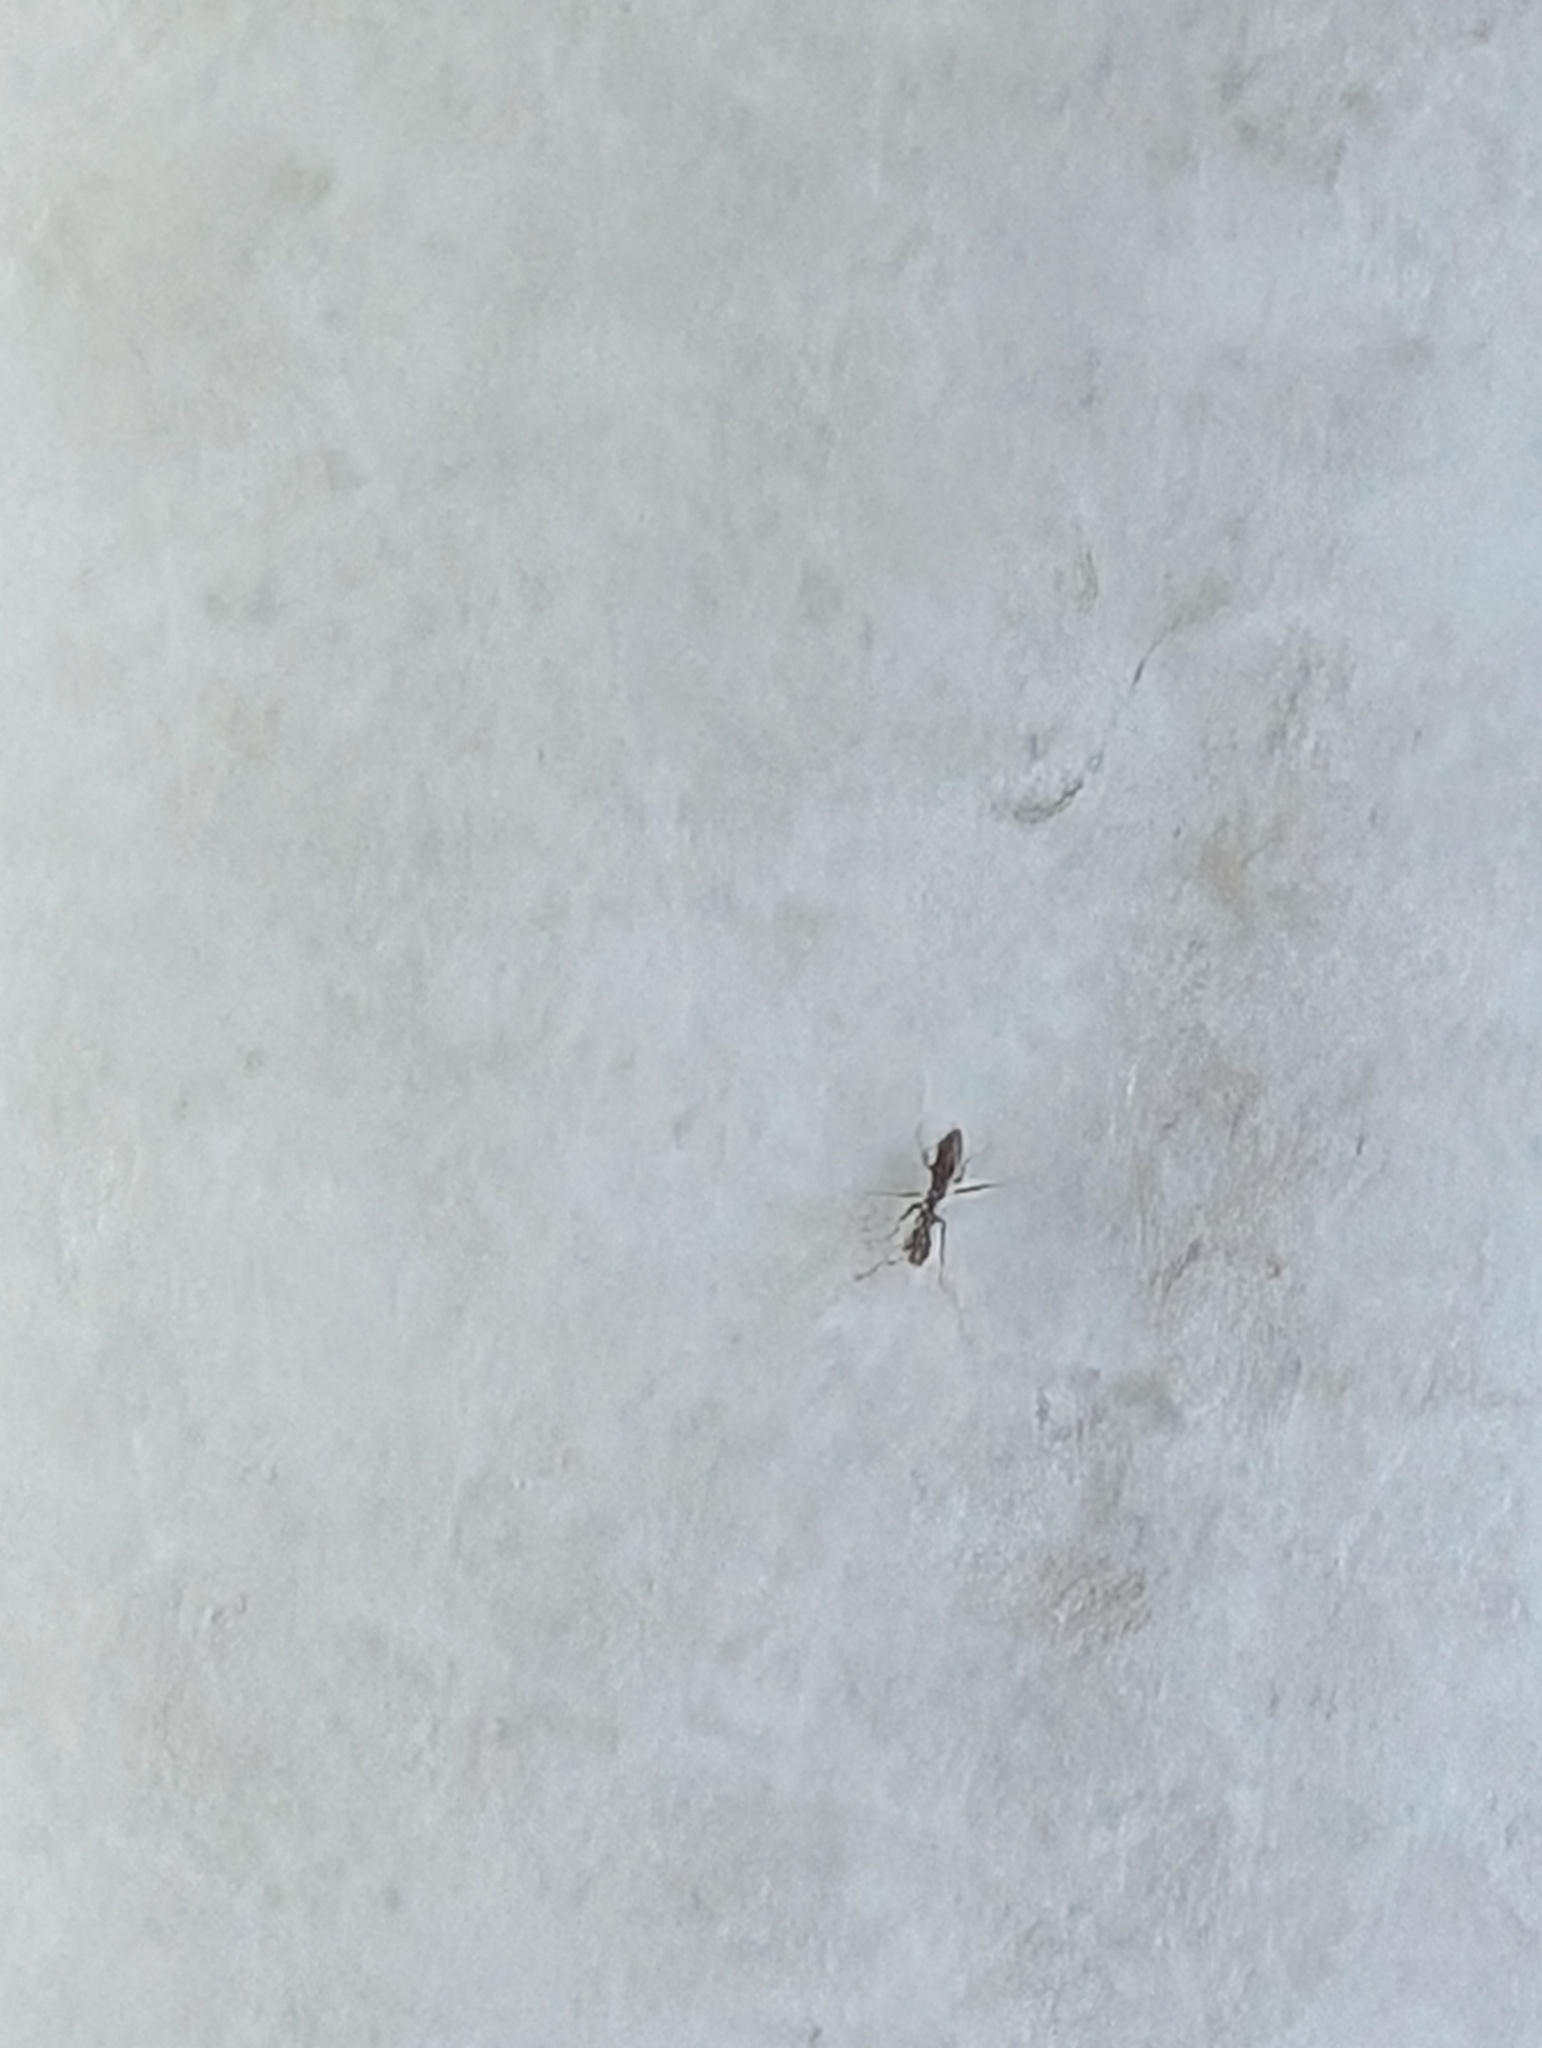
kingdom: Animalia
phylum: Arthropoda
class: Insecta
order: Hymenoptera
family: Formicidae
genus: Paratrechina
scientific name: Paratrechina longicornis
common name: Longhorned crazy ant
